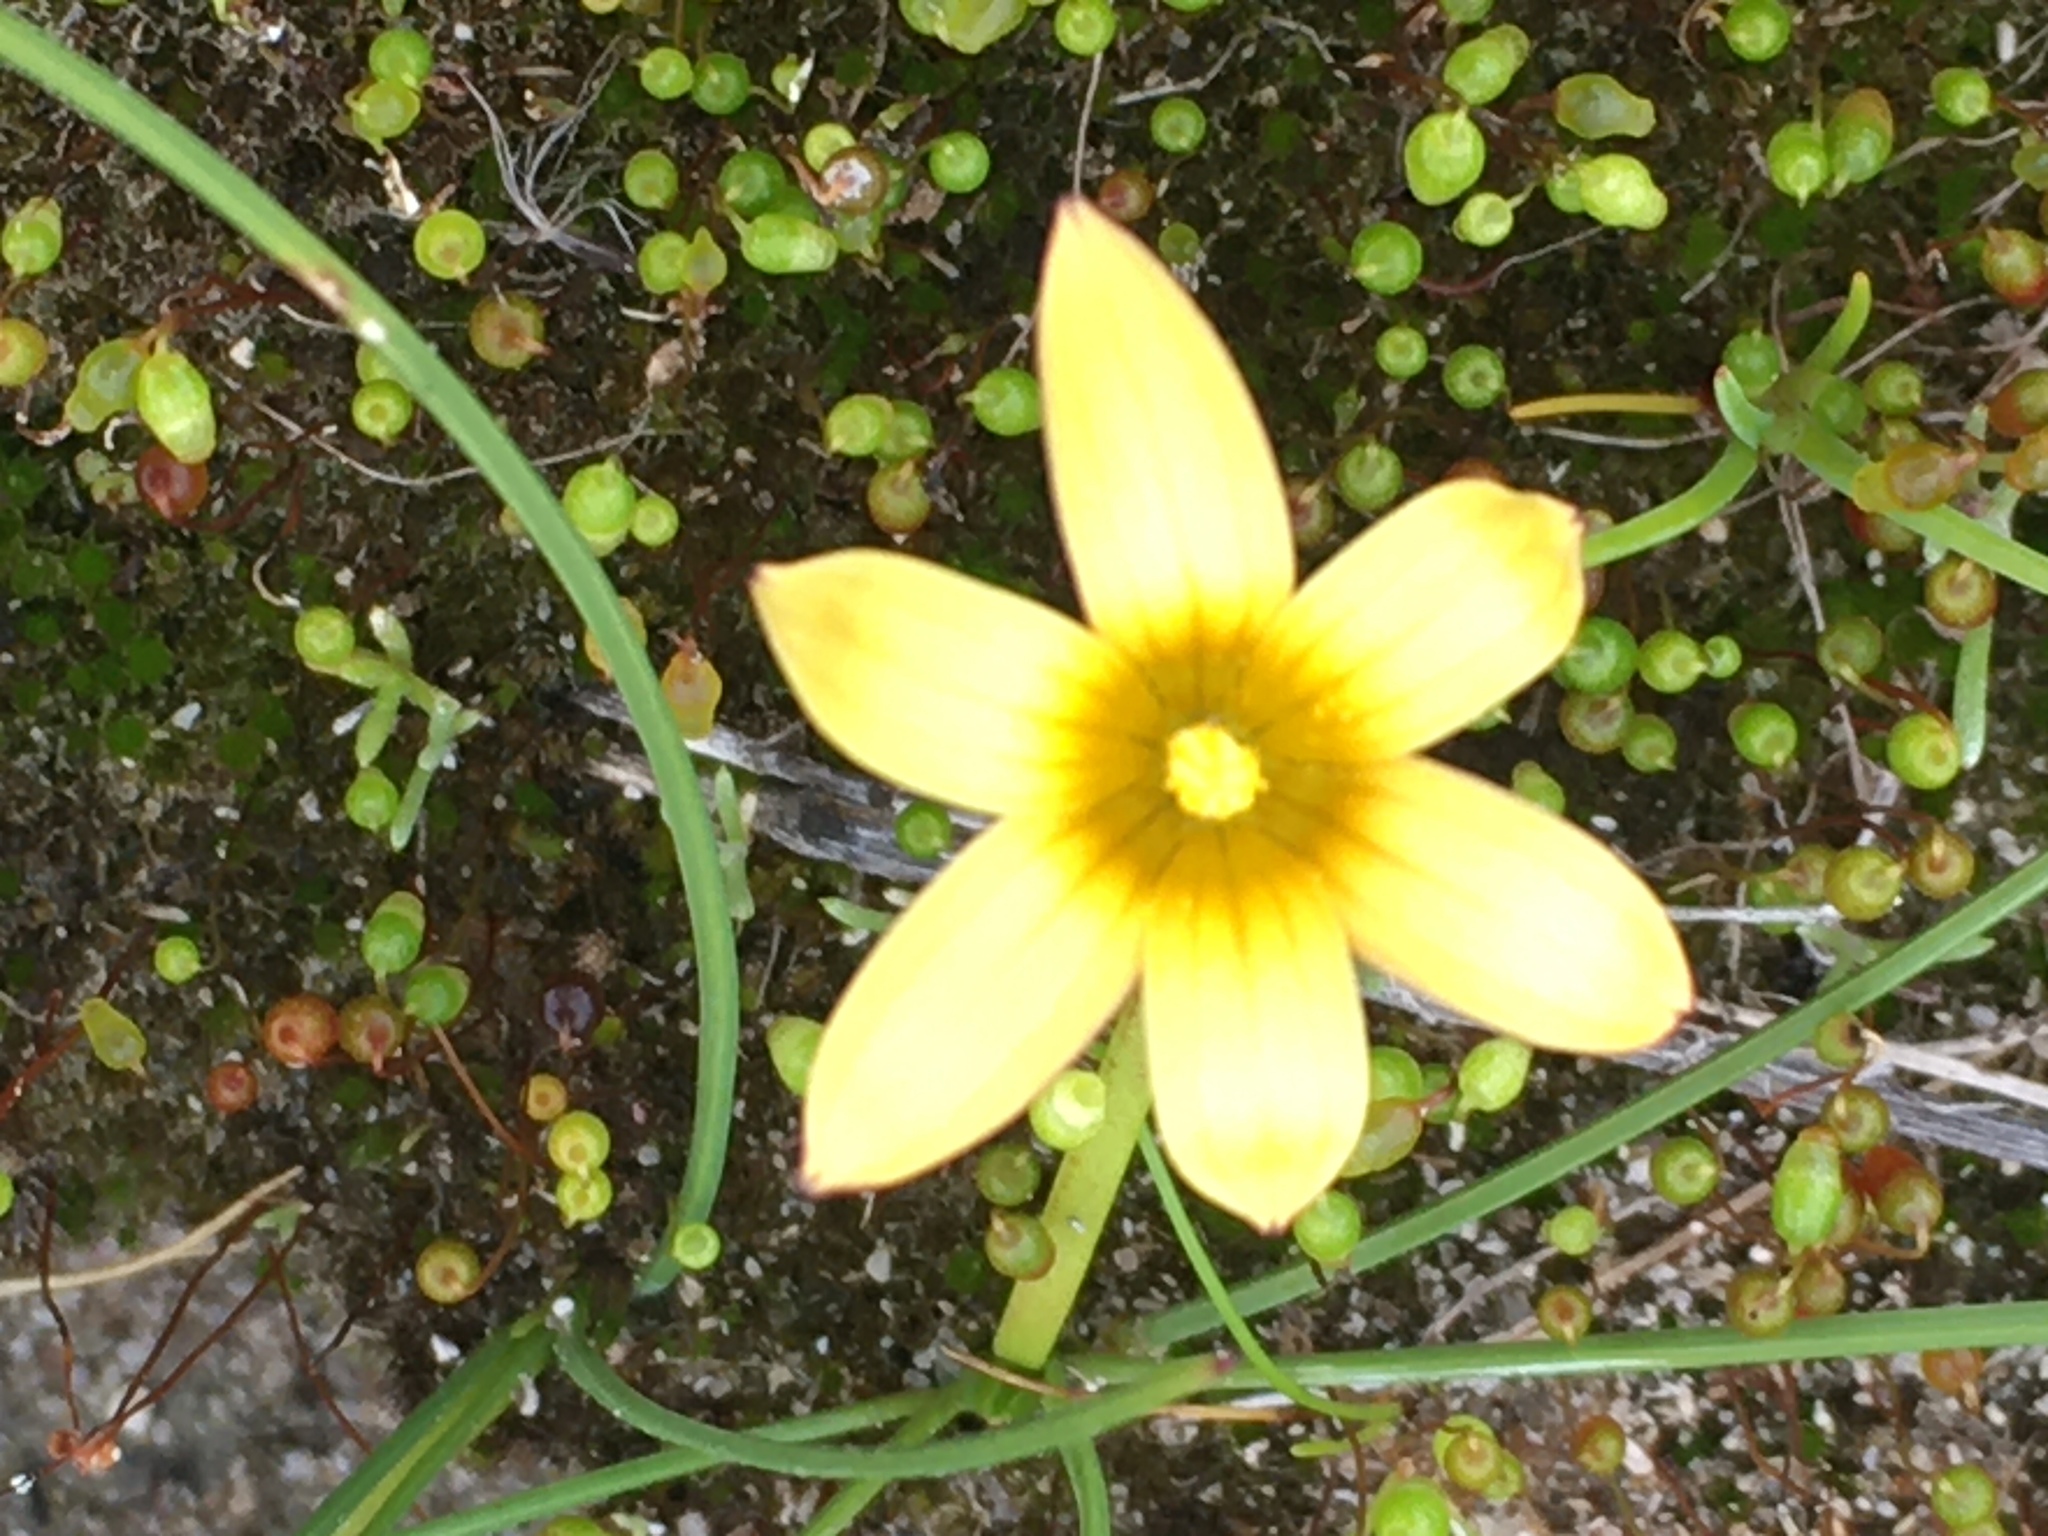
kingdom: Plantae
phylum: Tracheophyta
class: Liliopsida
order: Asparagales
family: Iridaceae
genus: Romulea
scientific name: Romulea flava
